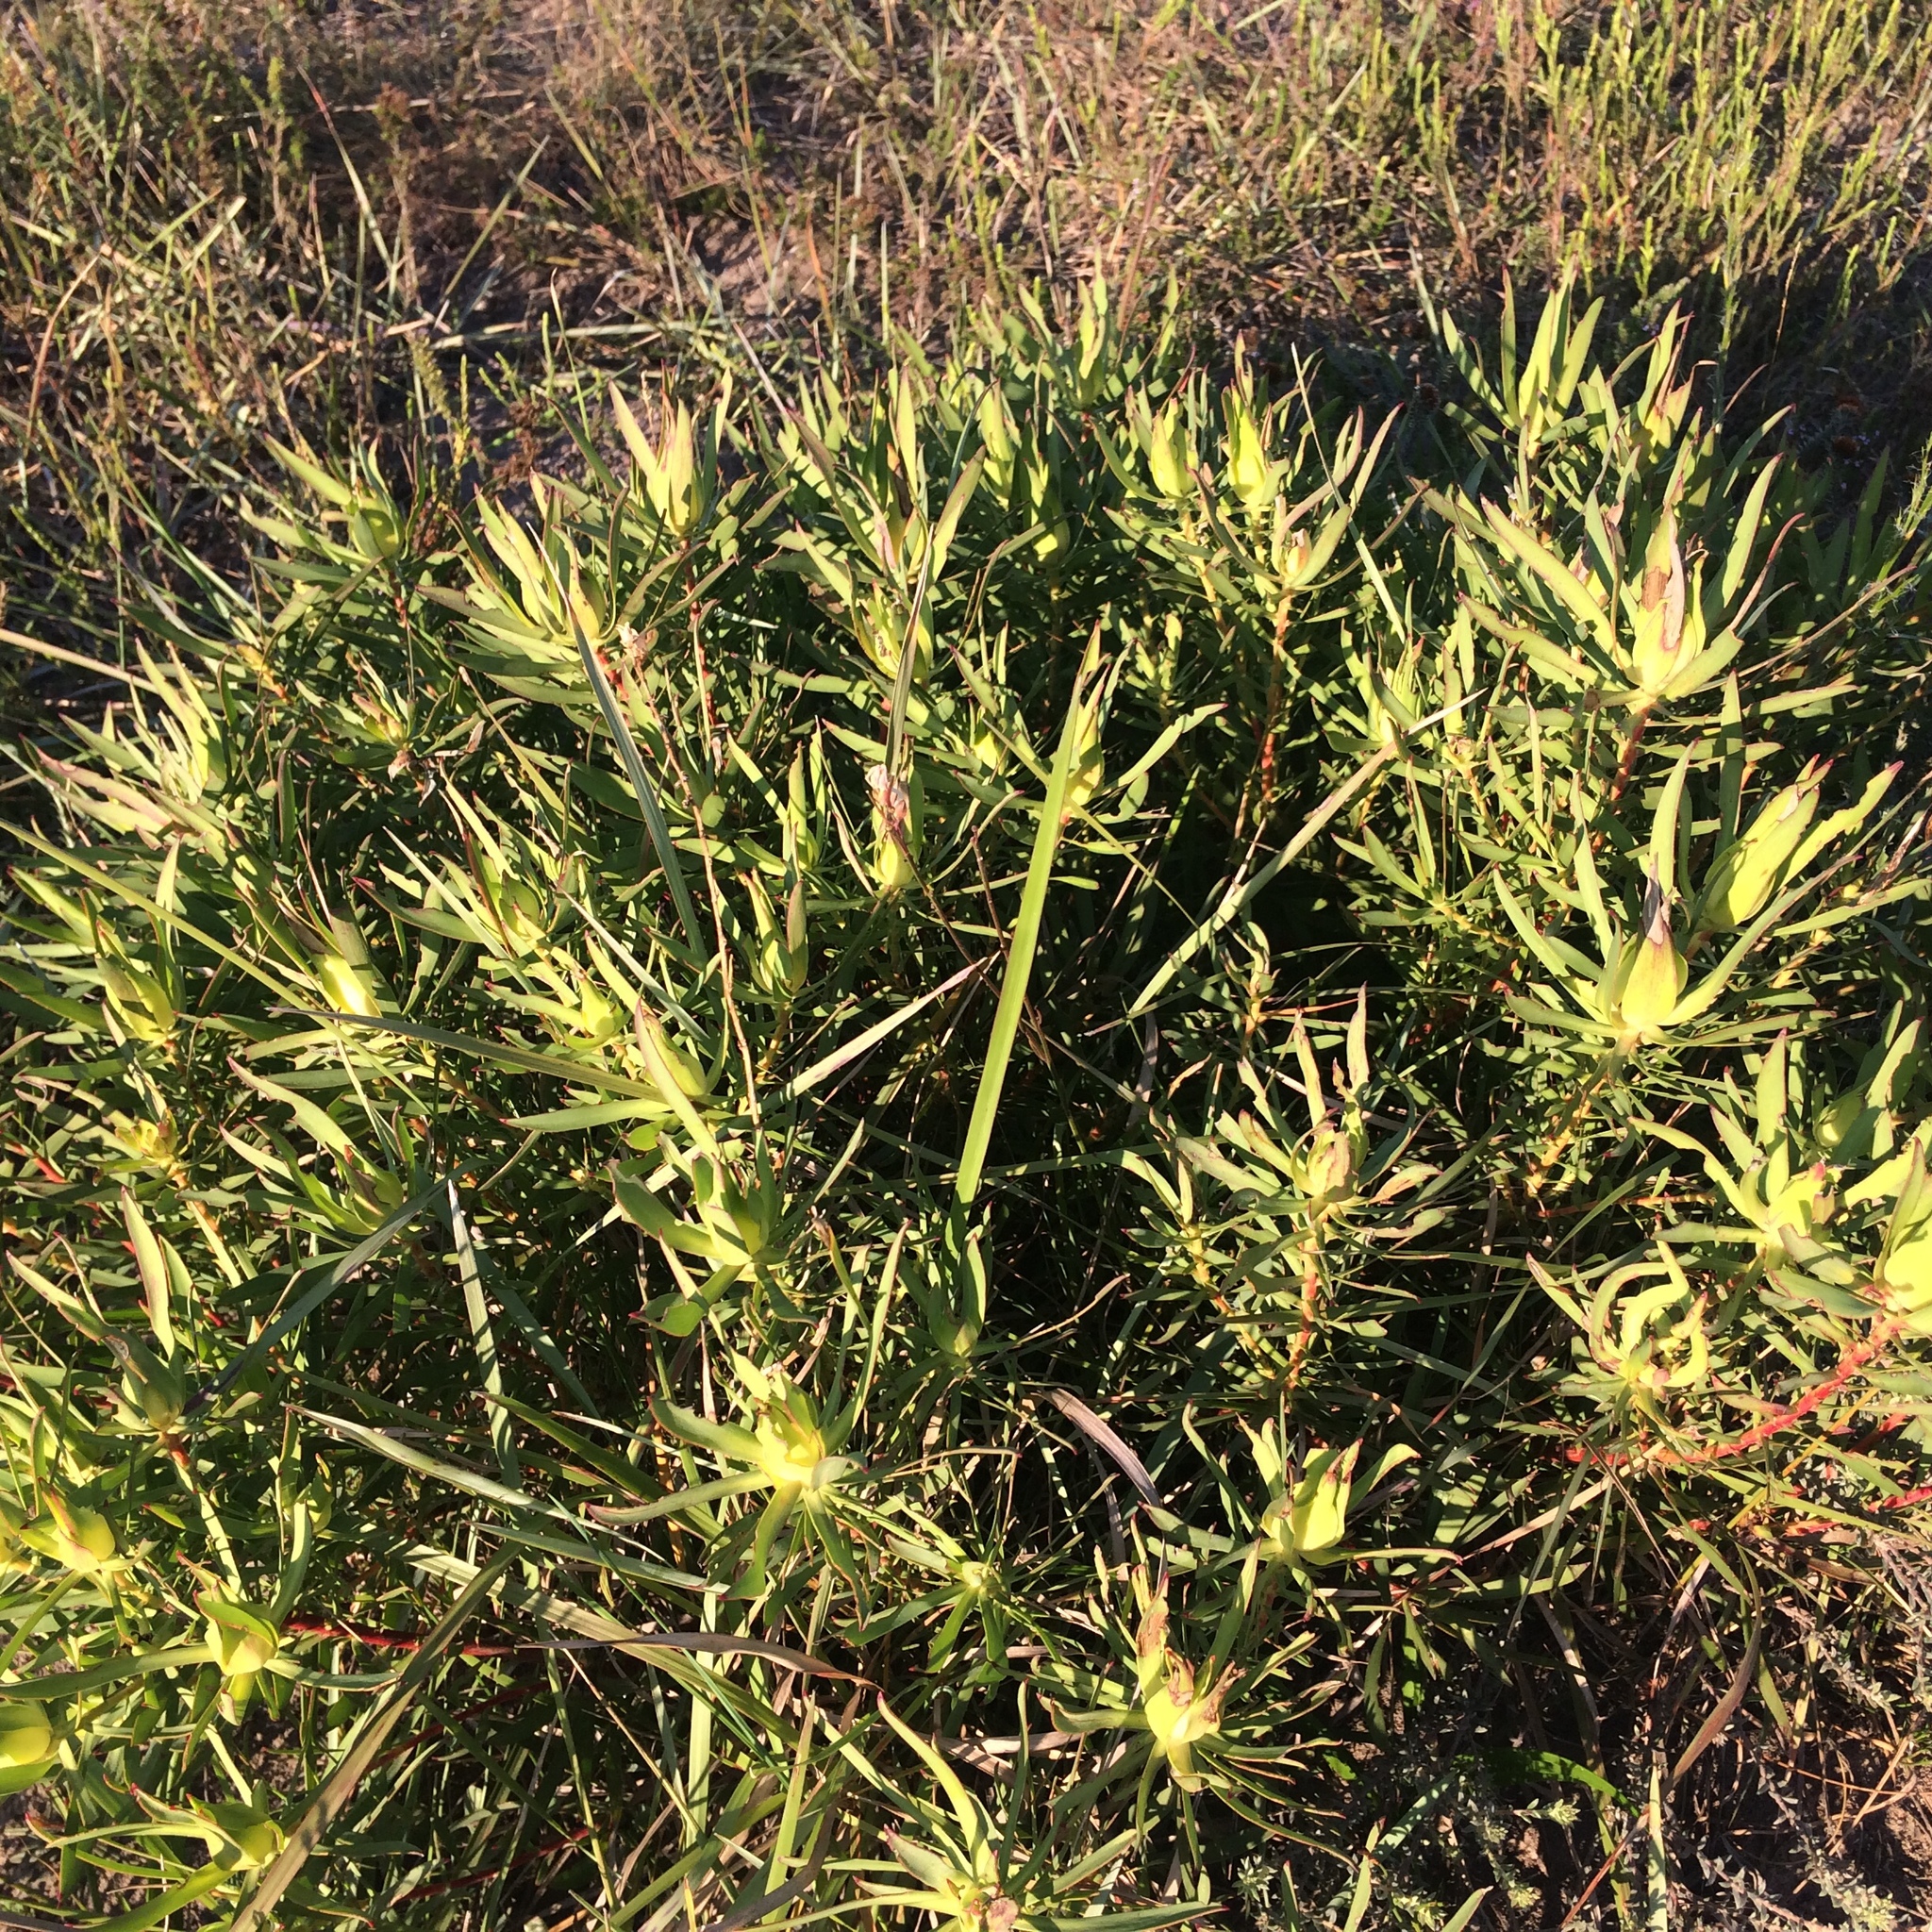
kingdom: Plantae
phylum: Tracheophyta
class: Magnoliopsida
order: Proteales
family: Proteaceae
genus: Leucadendron
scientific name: Leucadendron salignum
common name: Common sunshine conebush
